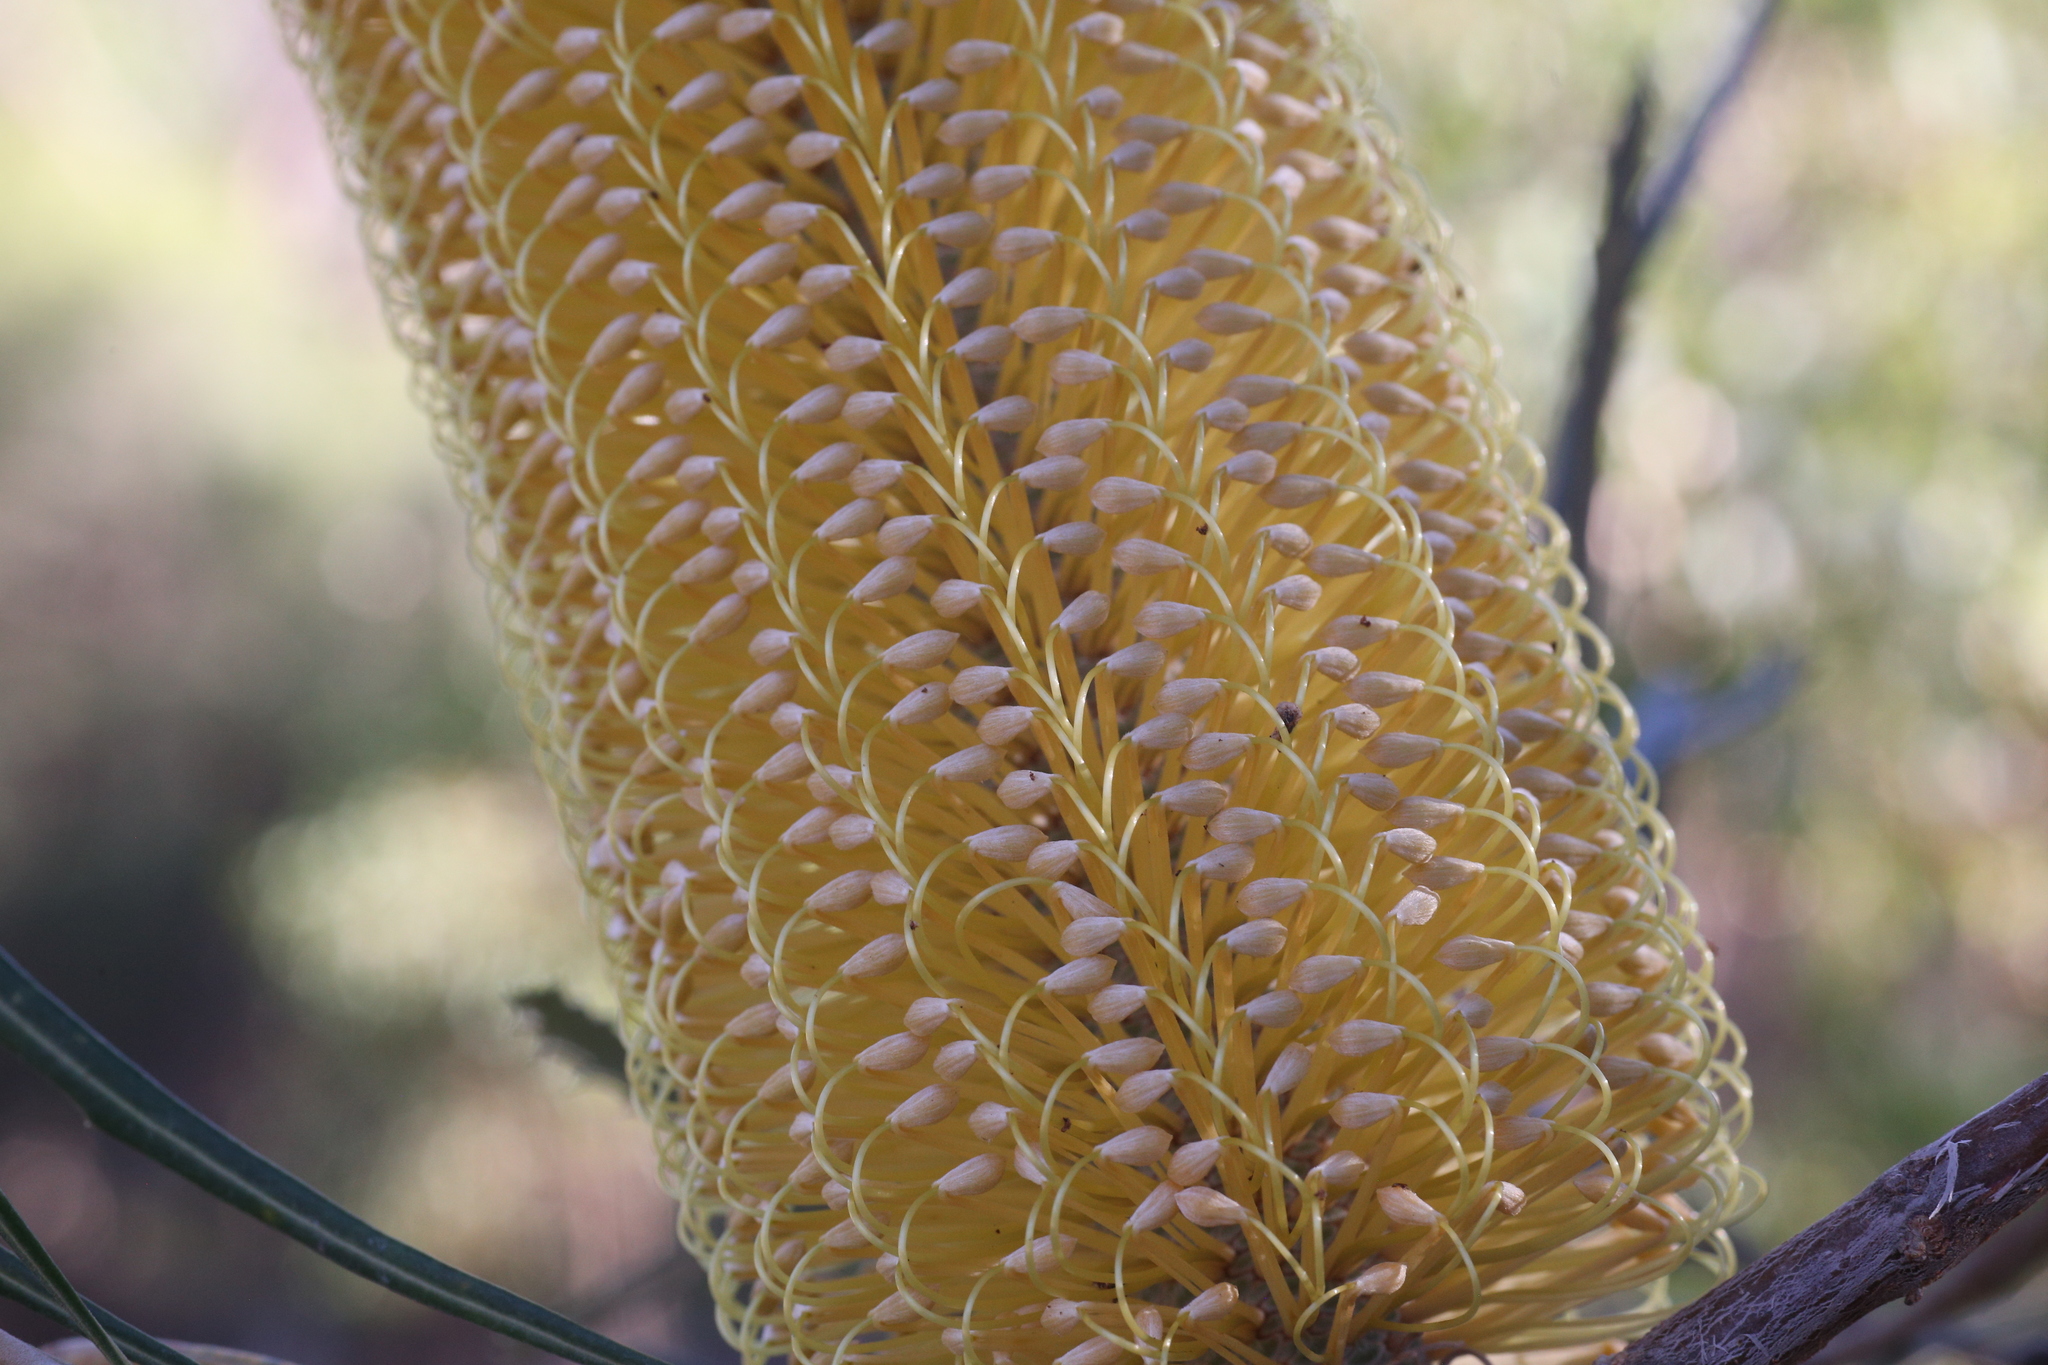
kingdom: Plantae
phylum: Tracheophyta
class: Magnoliopsida
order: Proteales
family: Proteaceae
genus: Banksia
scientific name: Banksia littoralis
